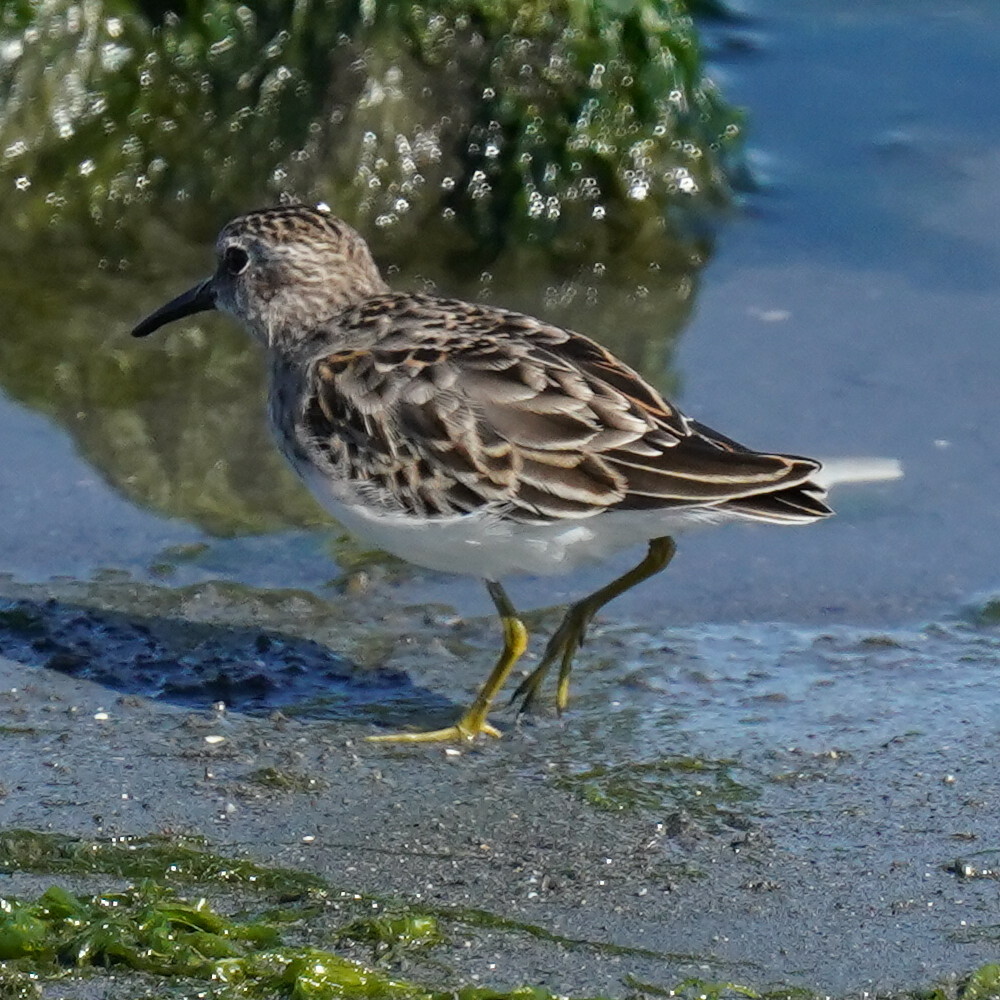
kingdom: Animalia
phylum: Chordata
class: Aves
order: Charadriiformes
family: Scolopacidae
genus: Calidris
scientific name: Calidris minutilla
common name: Least sandpiper
